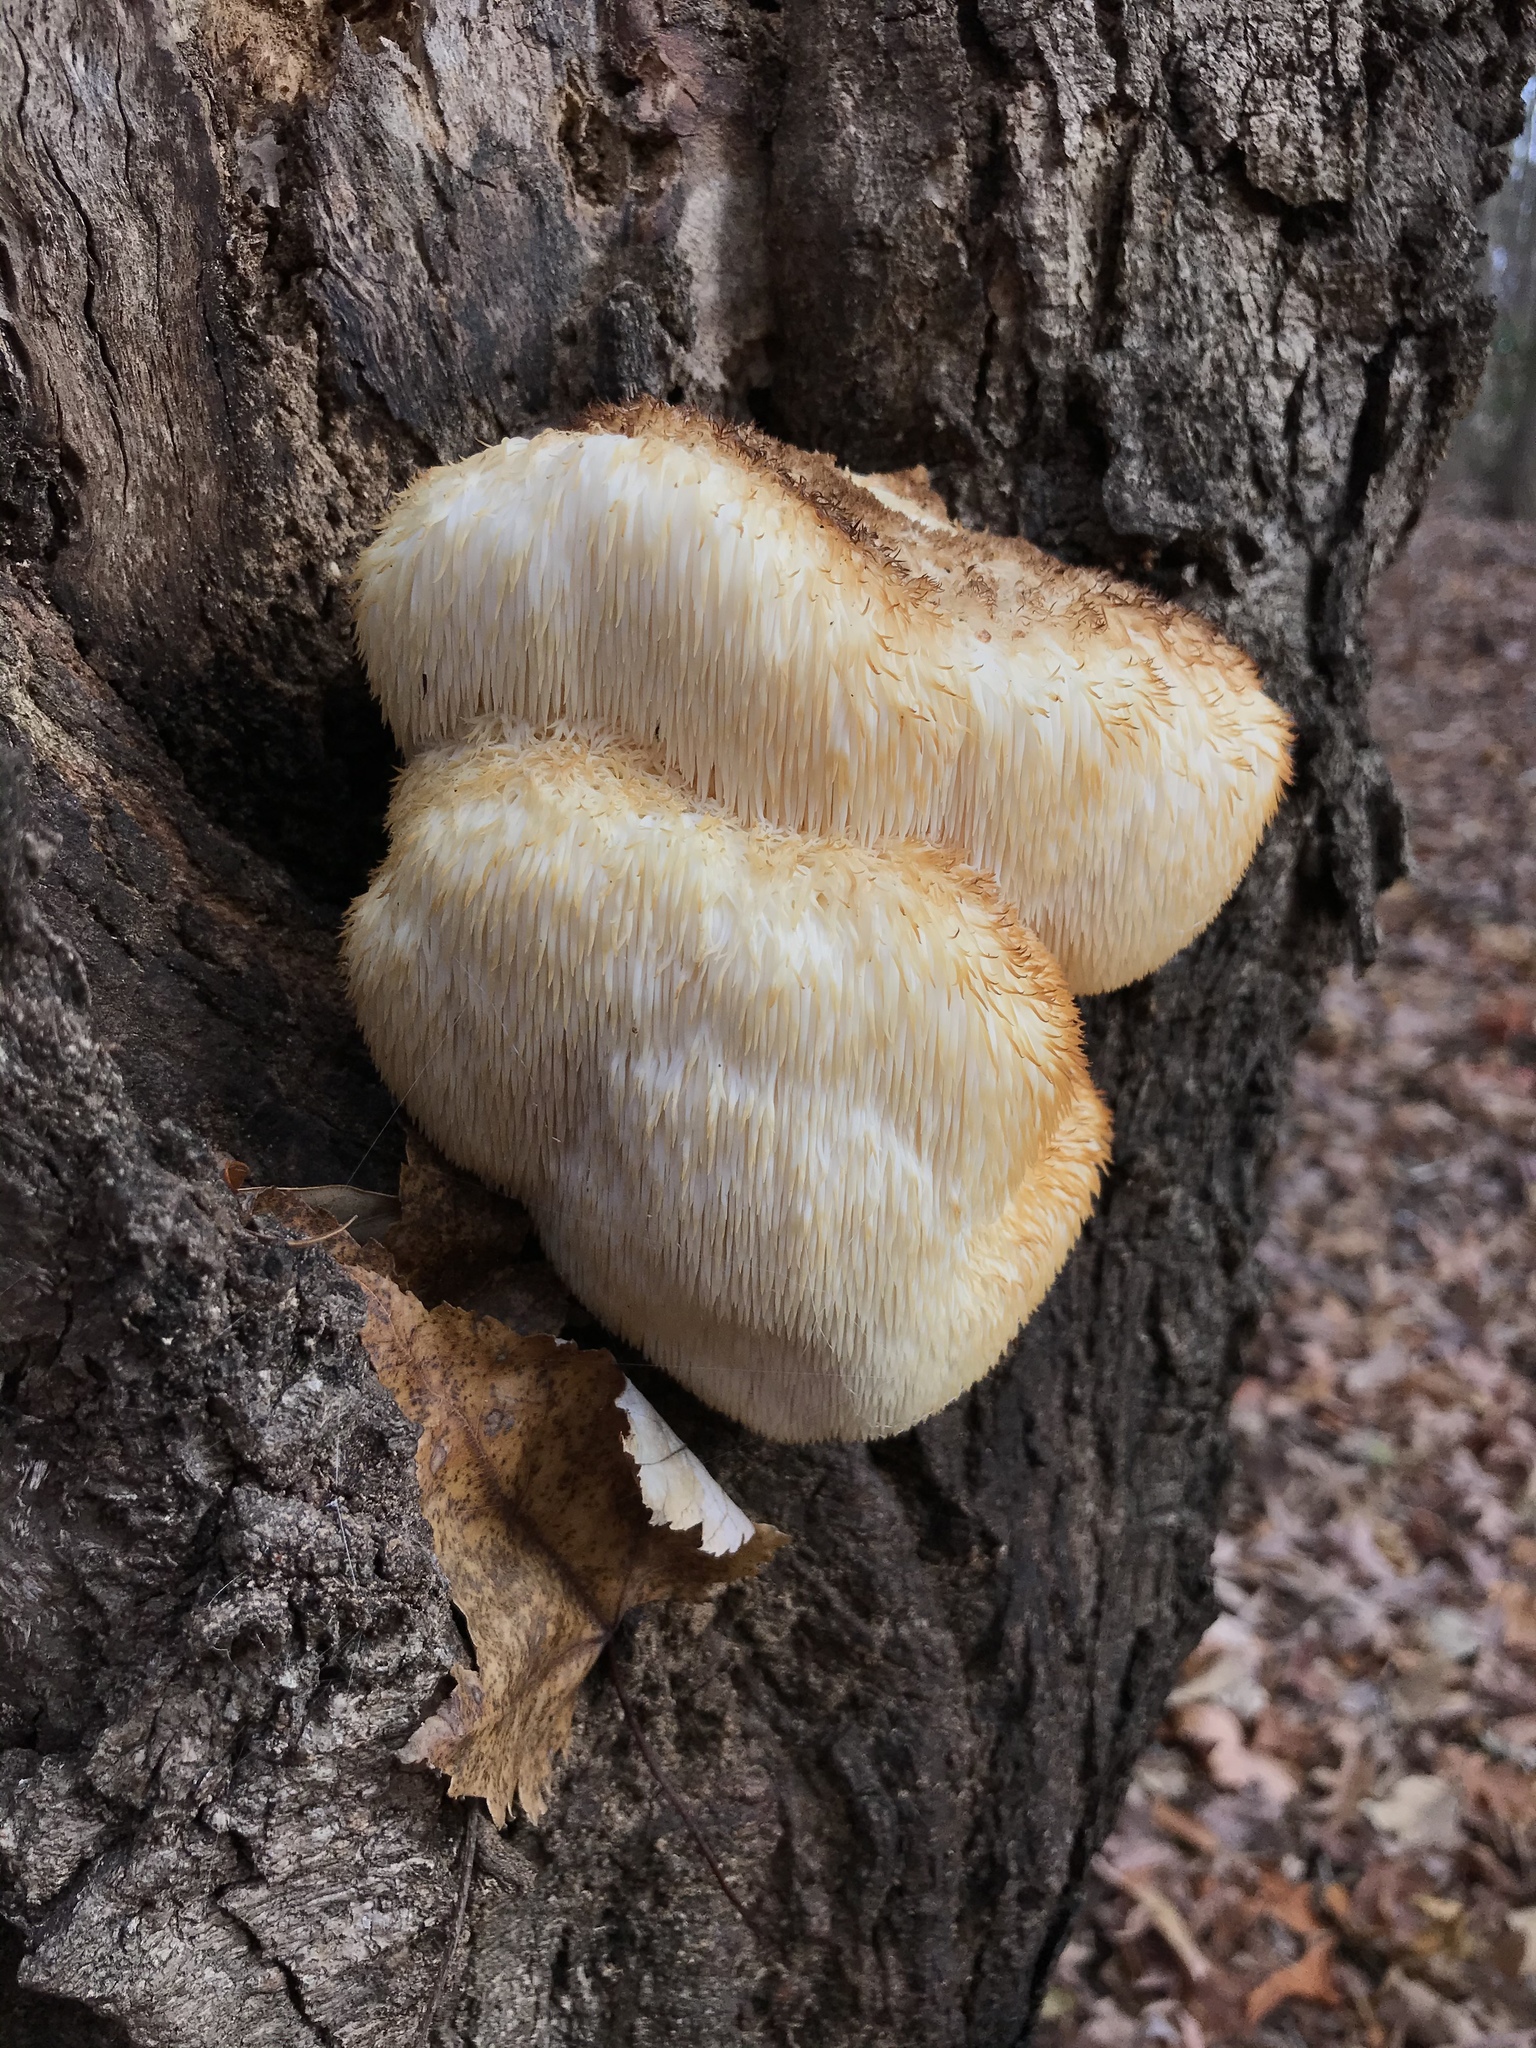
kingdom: Fungi
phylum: Basidiomycota
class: Agaricomycetes
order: Russulales
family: Hericiaceae
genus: Hericium
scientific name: Hericium erinaceus
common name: Bearded tooth
